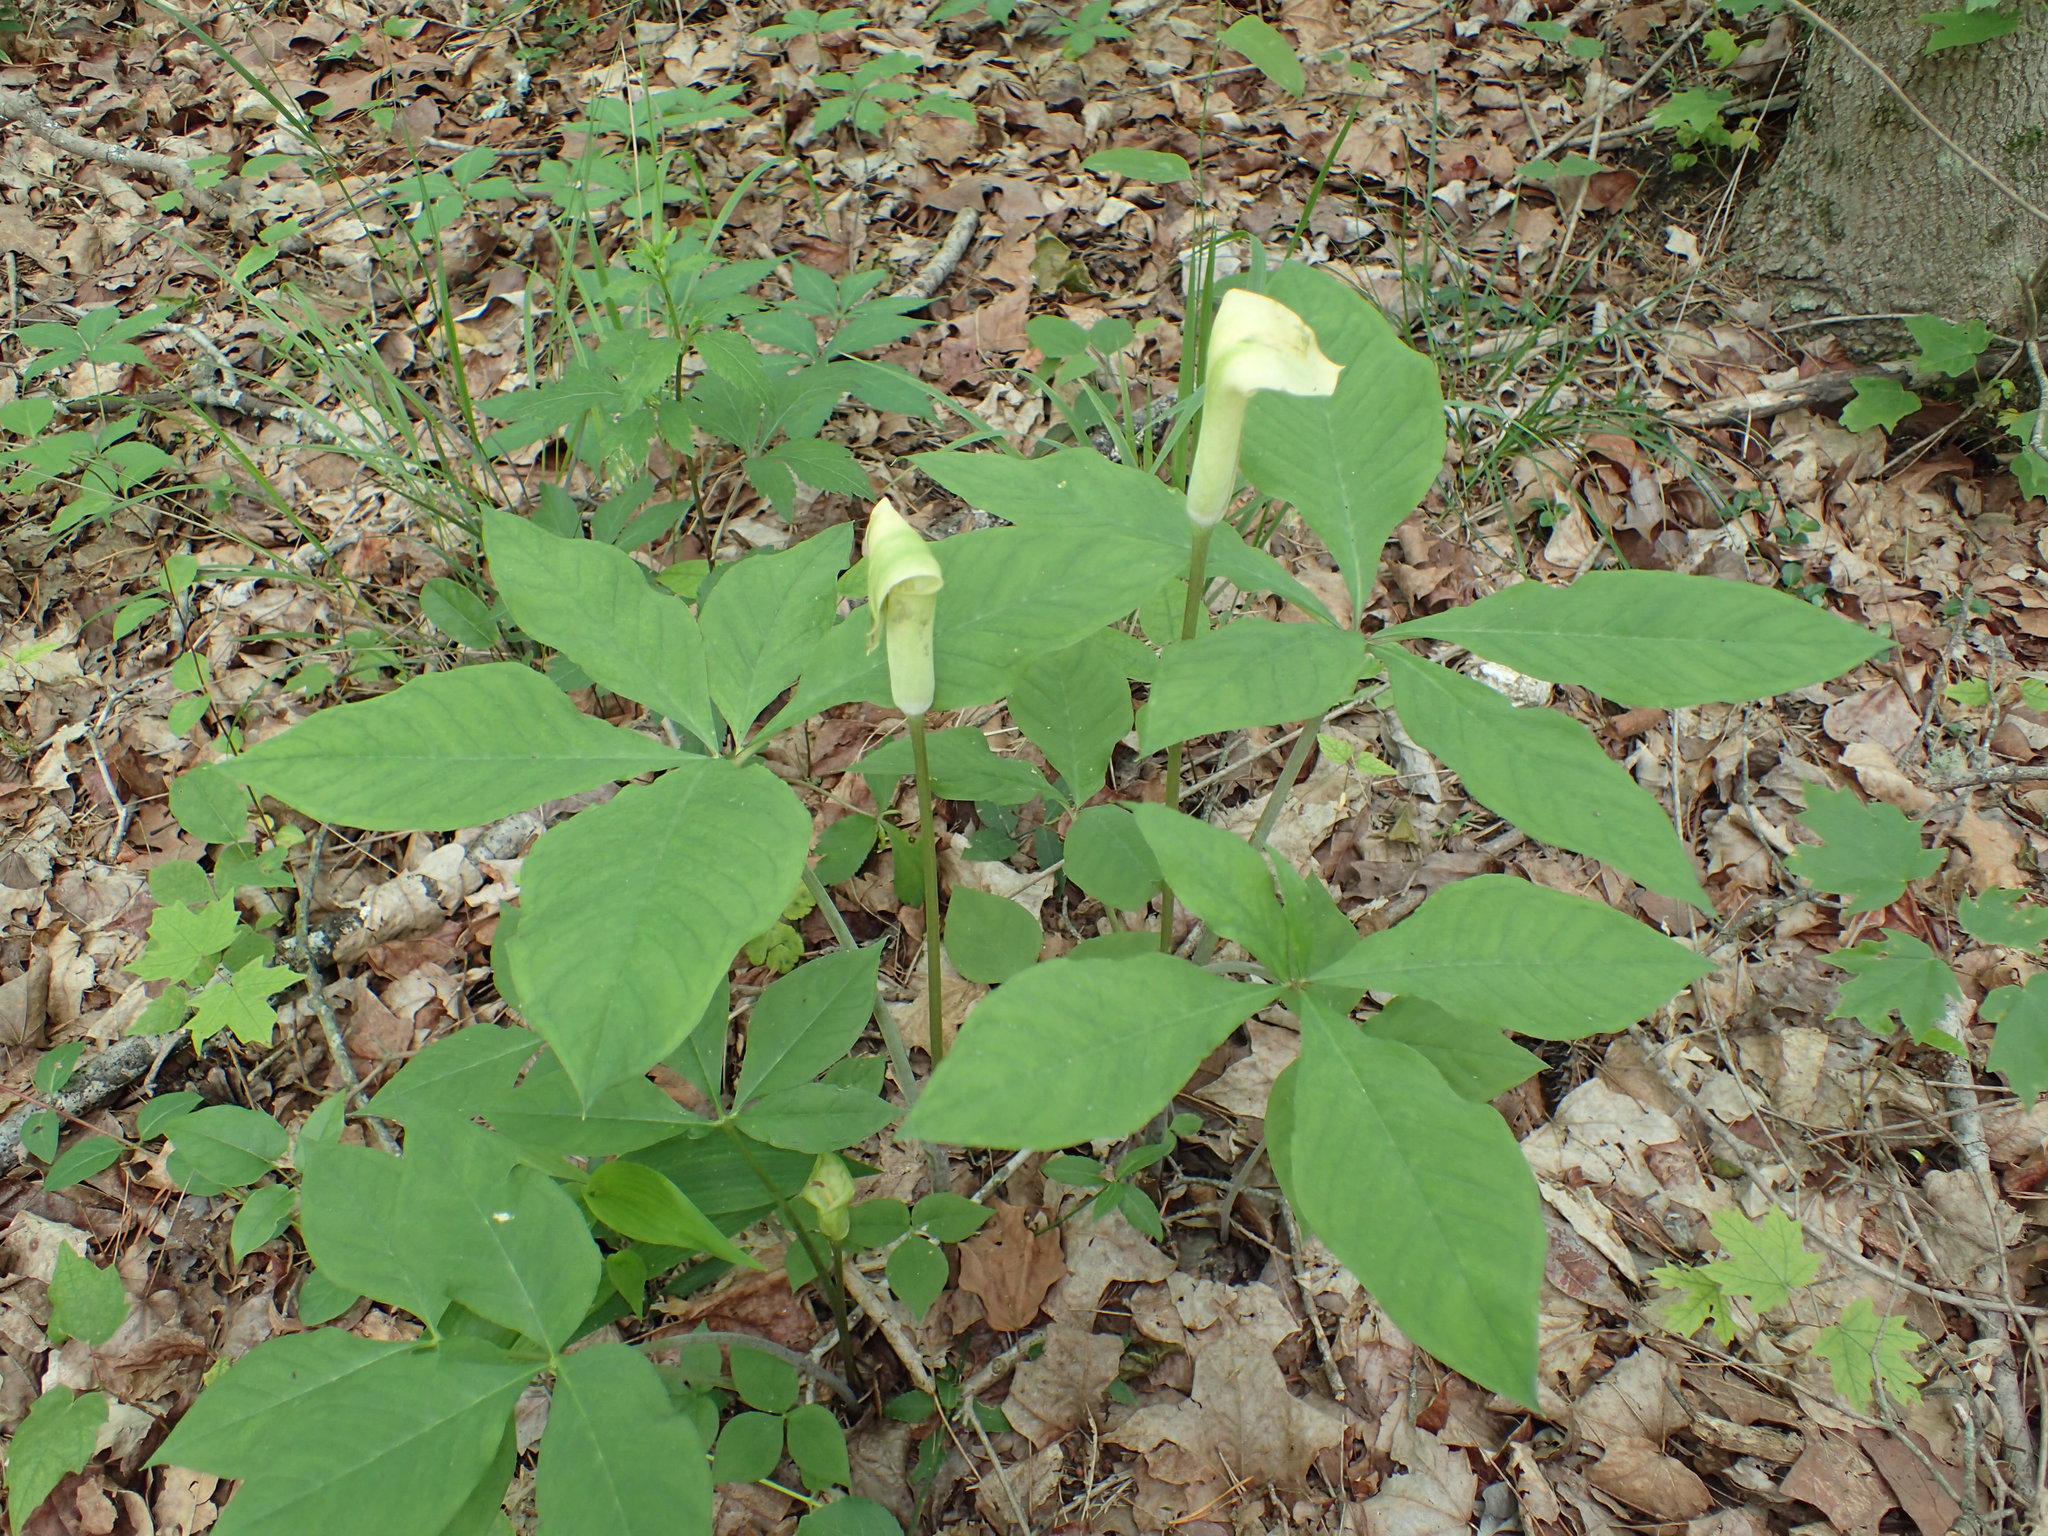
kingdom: Plantae
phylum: Tracheophyta
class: Liliopsida
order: Alismatales
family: Araceae
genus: Arisaema
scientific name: Arisaema quinatum
